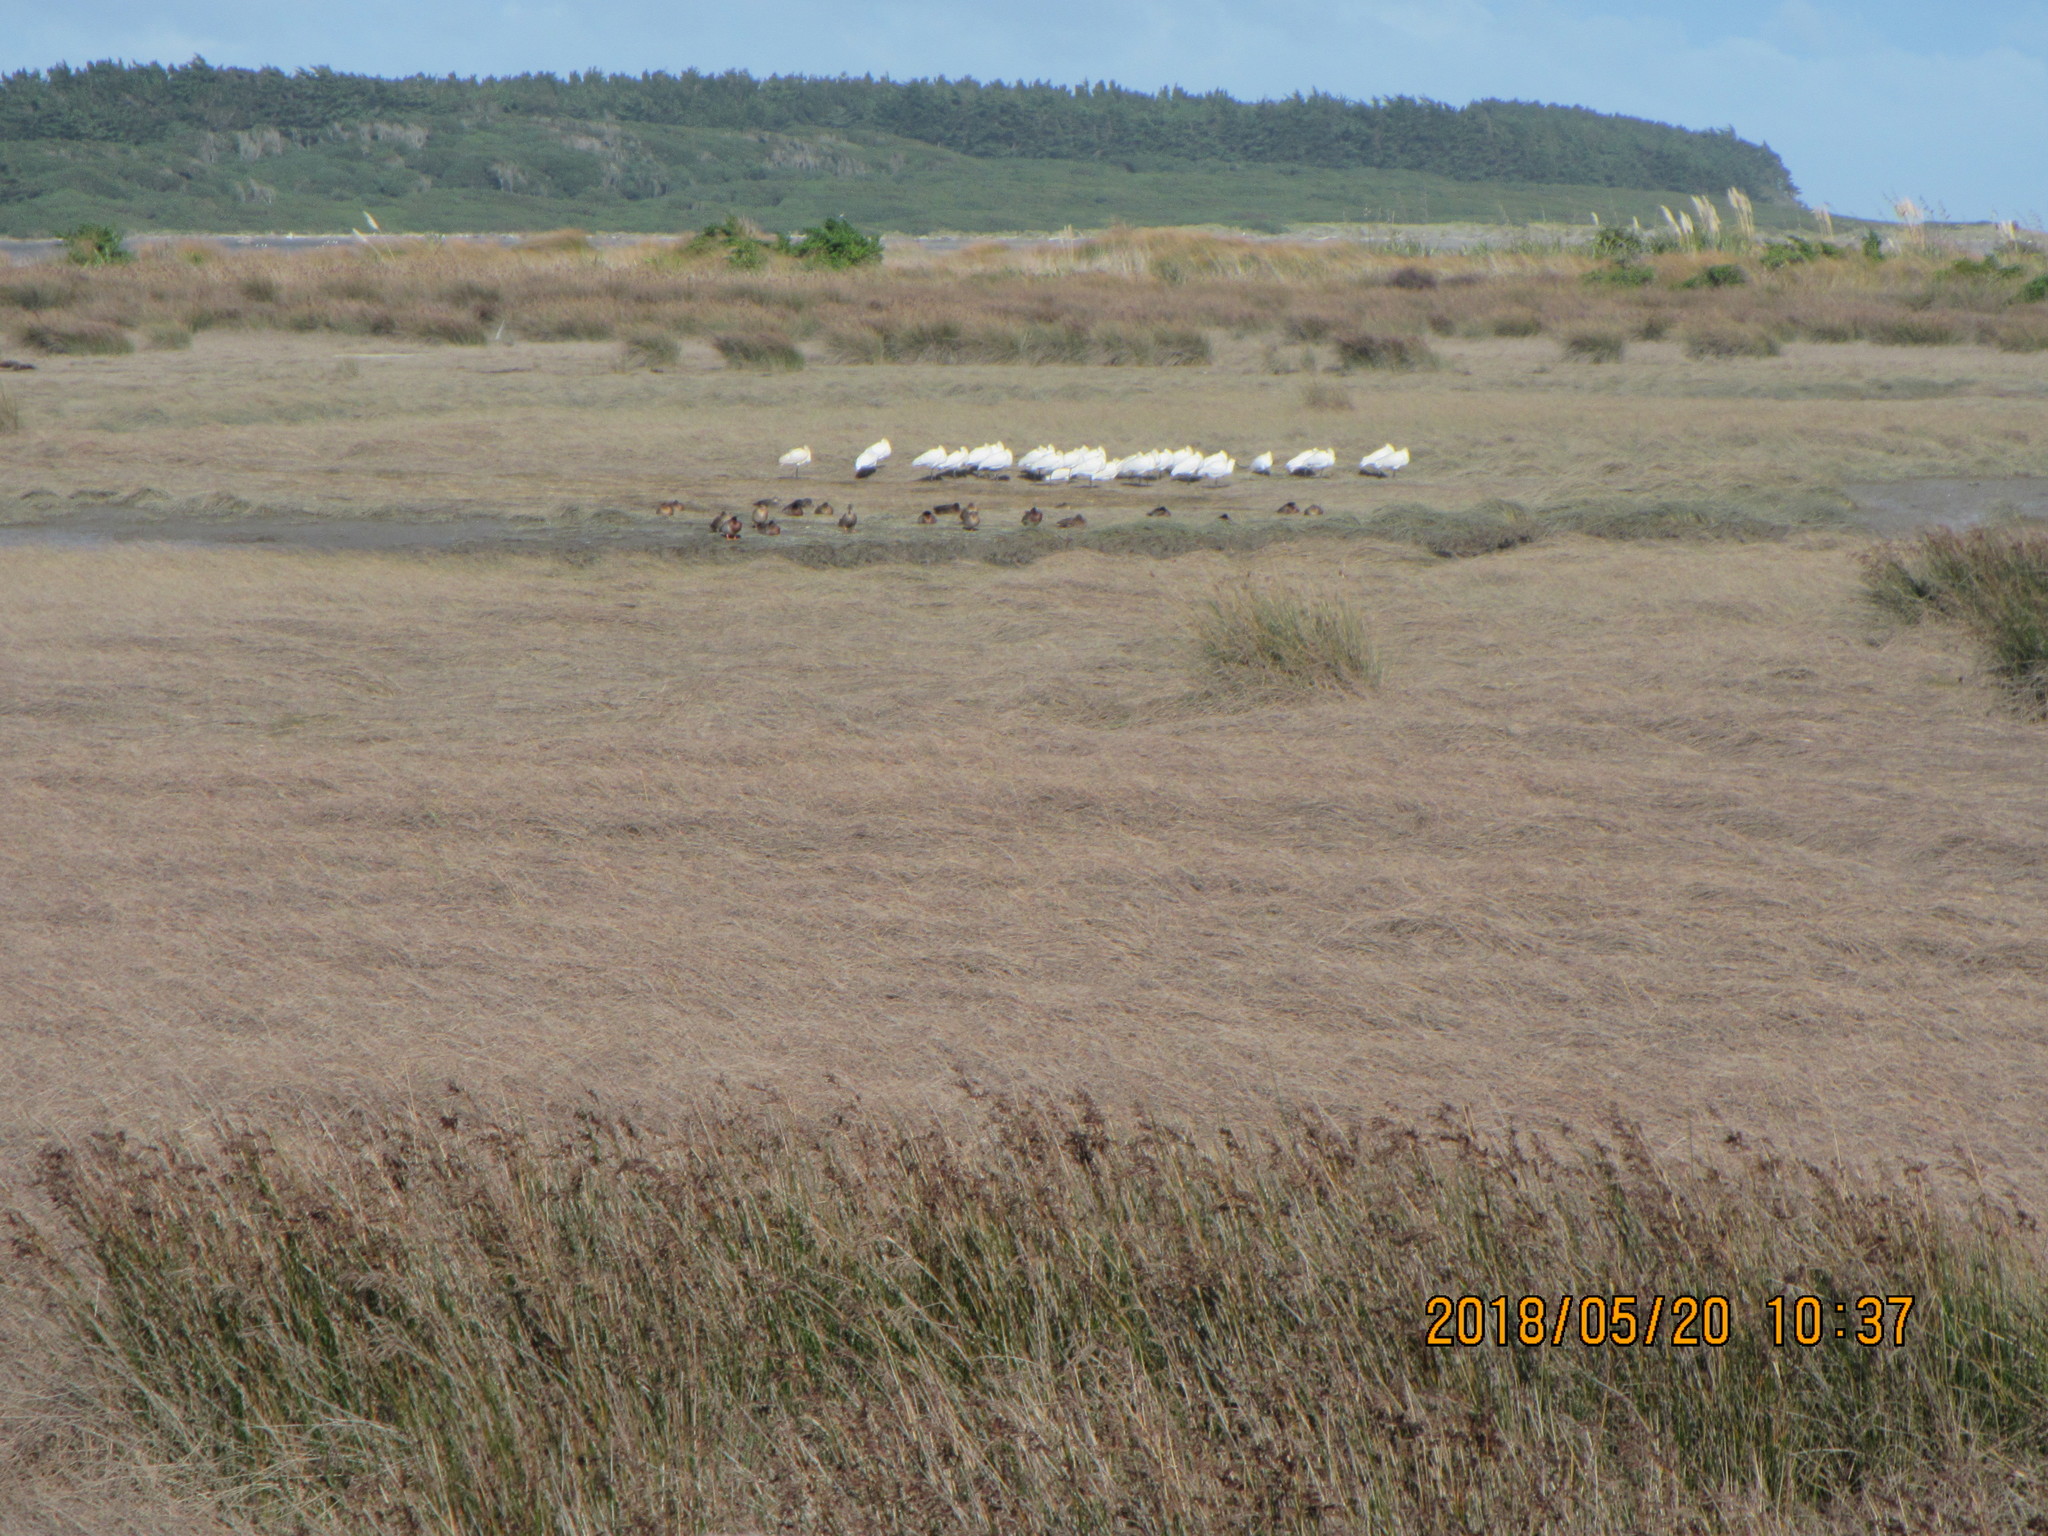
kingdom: Animalia
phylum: Chordata
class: Aves
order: Pelecaniformes
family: Threskiornithidae
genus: Platalea
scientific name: Platalea regia
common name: Royal spoonbill
